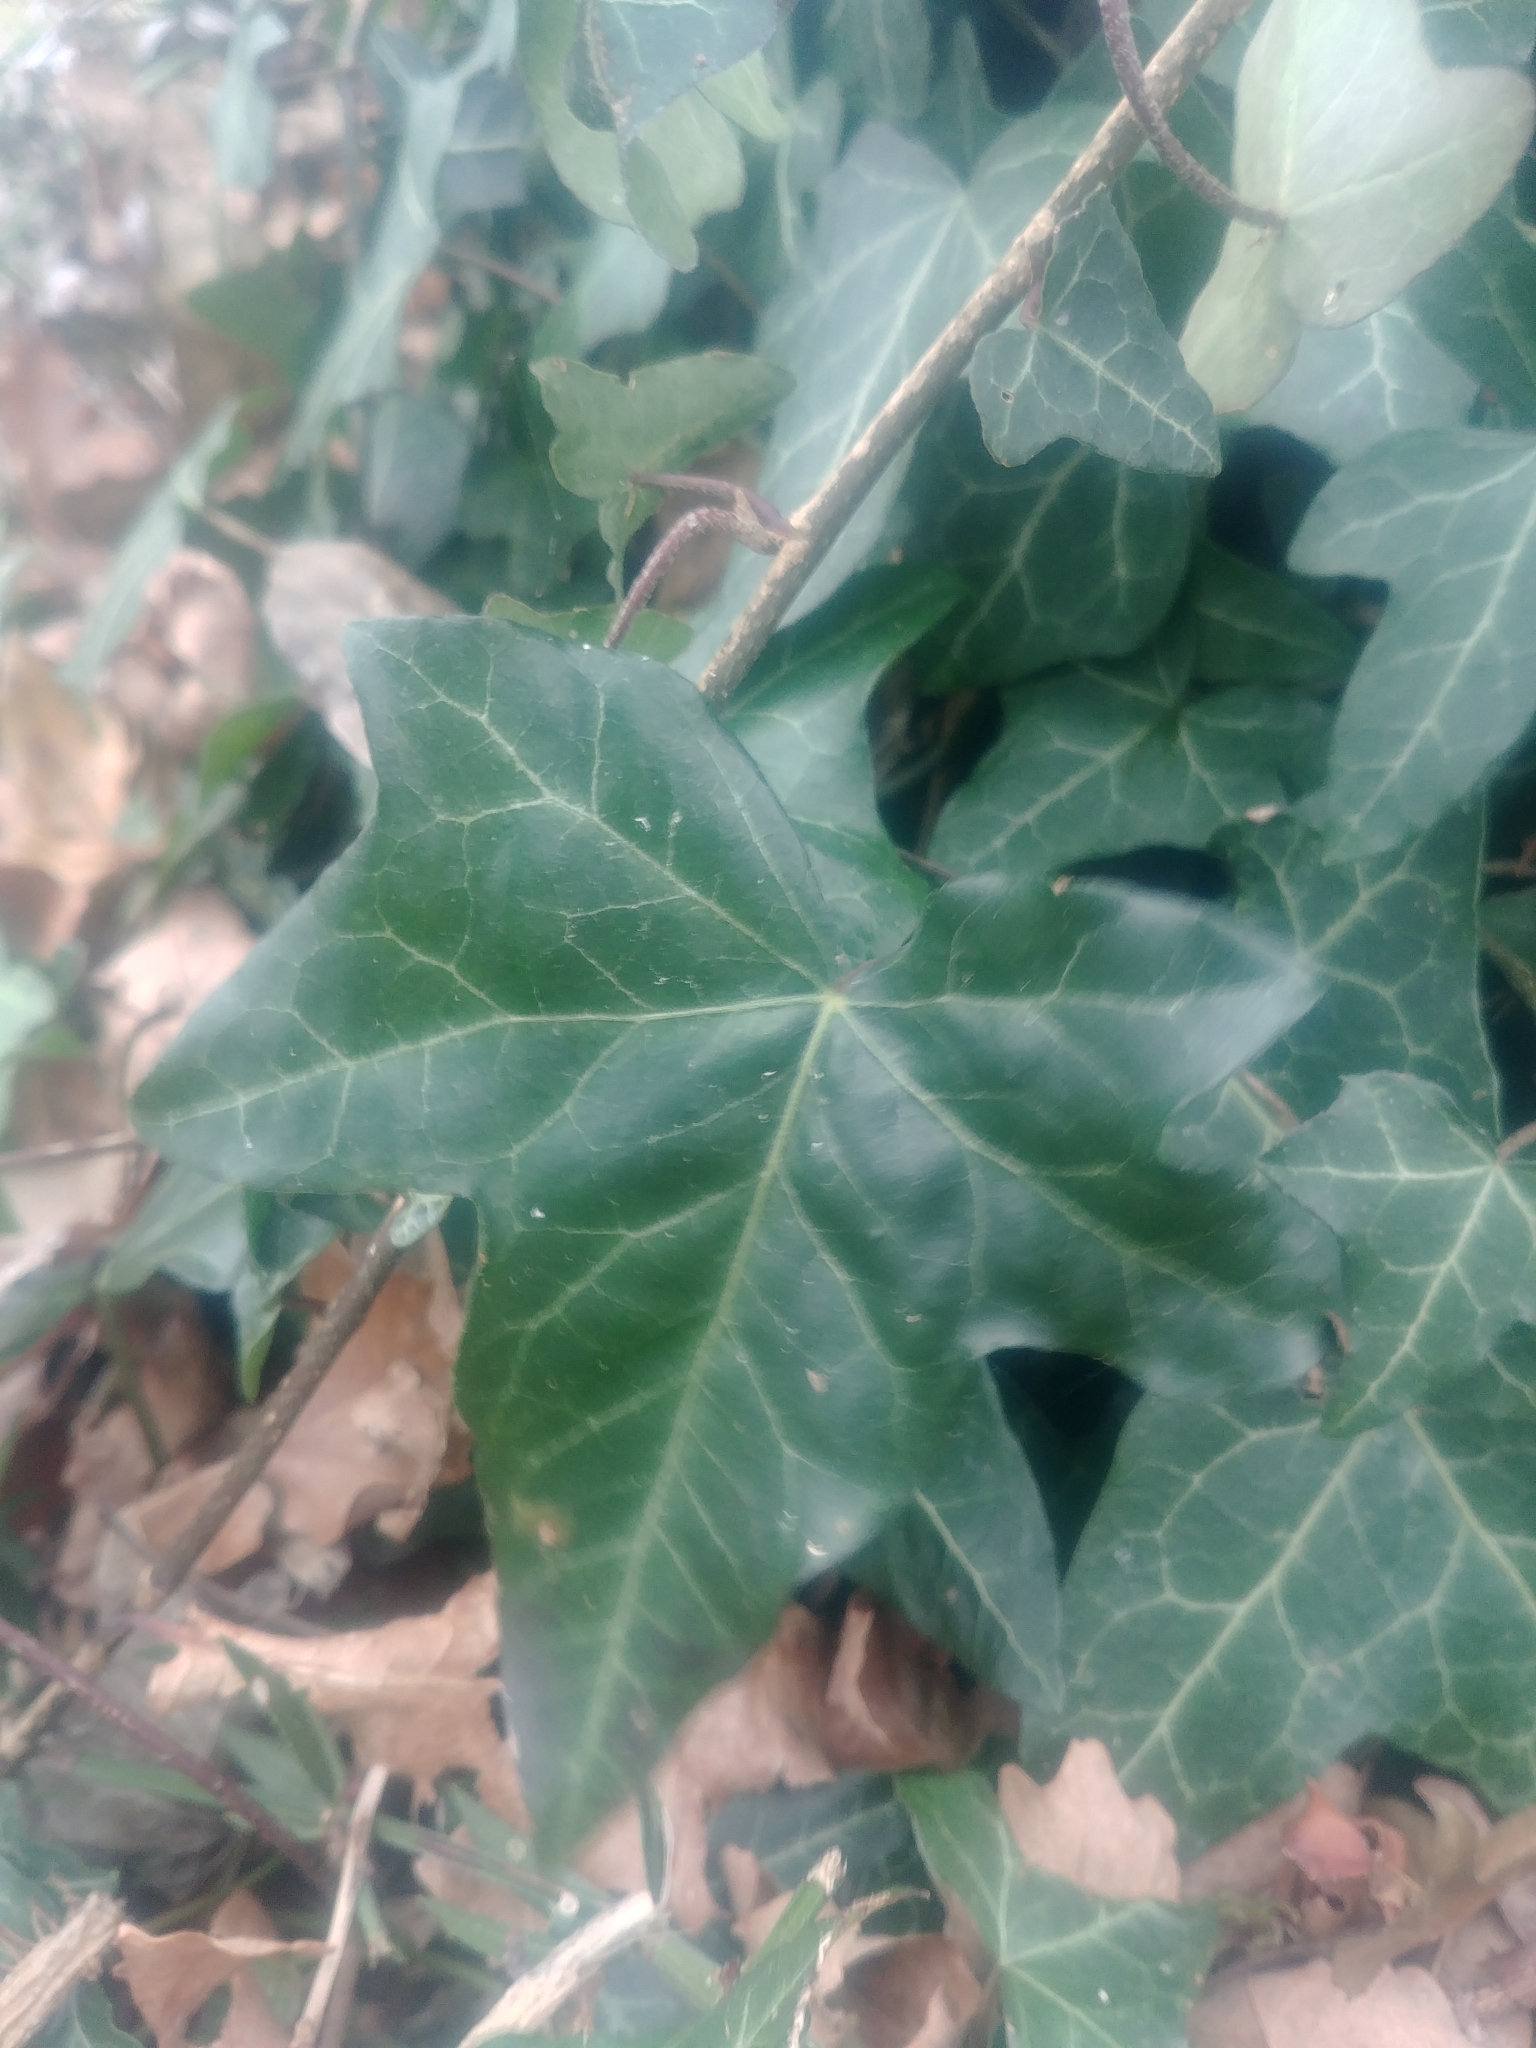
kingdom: Plantae
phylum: Tracheophyta
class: Magnoliopsida
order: Apiales
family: Araliaceae
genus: Hedera
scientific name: Hedera helix
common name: Ivy
